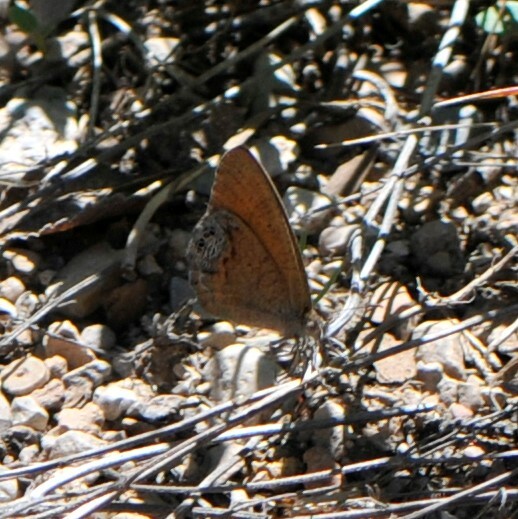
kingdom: Animalia
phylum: Arthropoda
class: Insecta
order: Lepidoptera
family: Nymphalidae
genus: Euptychia
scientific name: Euptychia Cyllopsis pertepida
